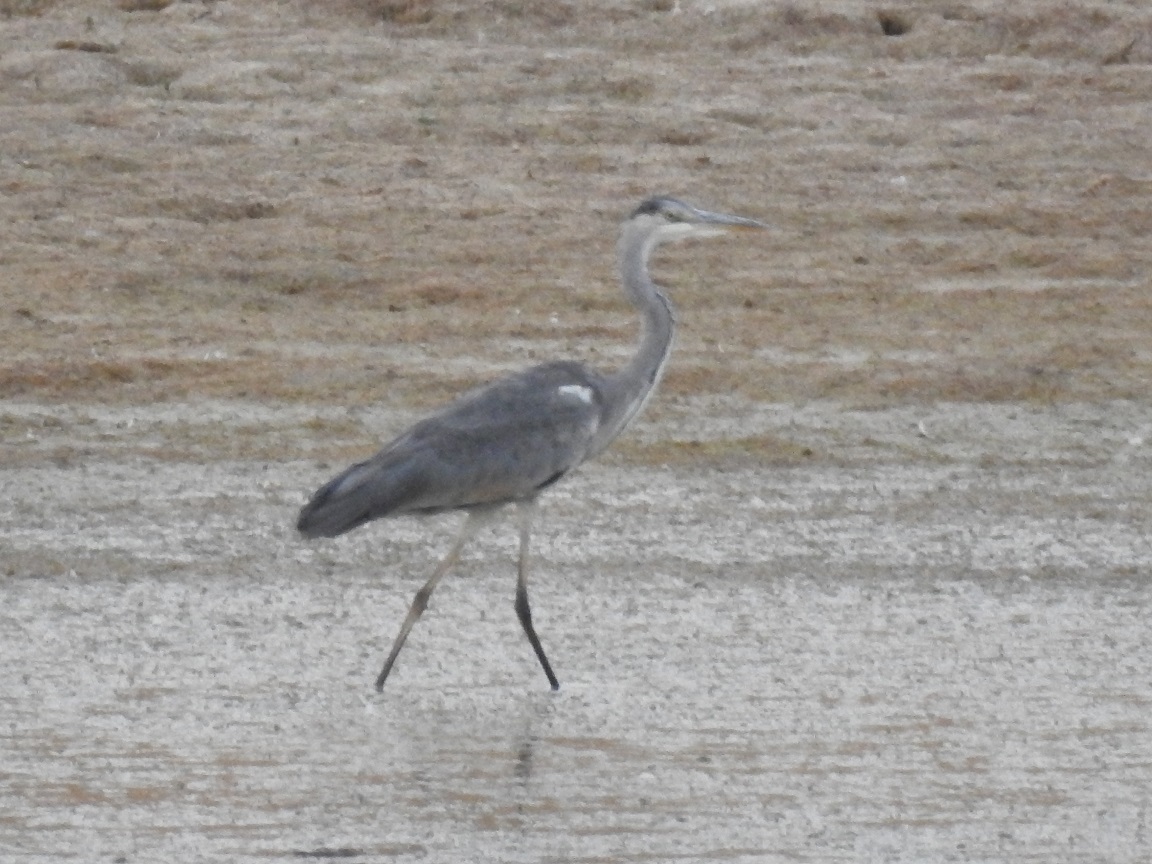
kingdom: Animalia
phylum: Chordata
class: Aves
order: Pelecaniformes
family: Ardeidae
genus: Ardea
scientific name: Ardea cinerea
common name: Grey heron
